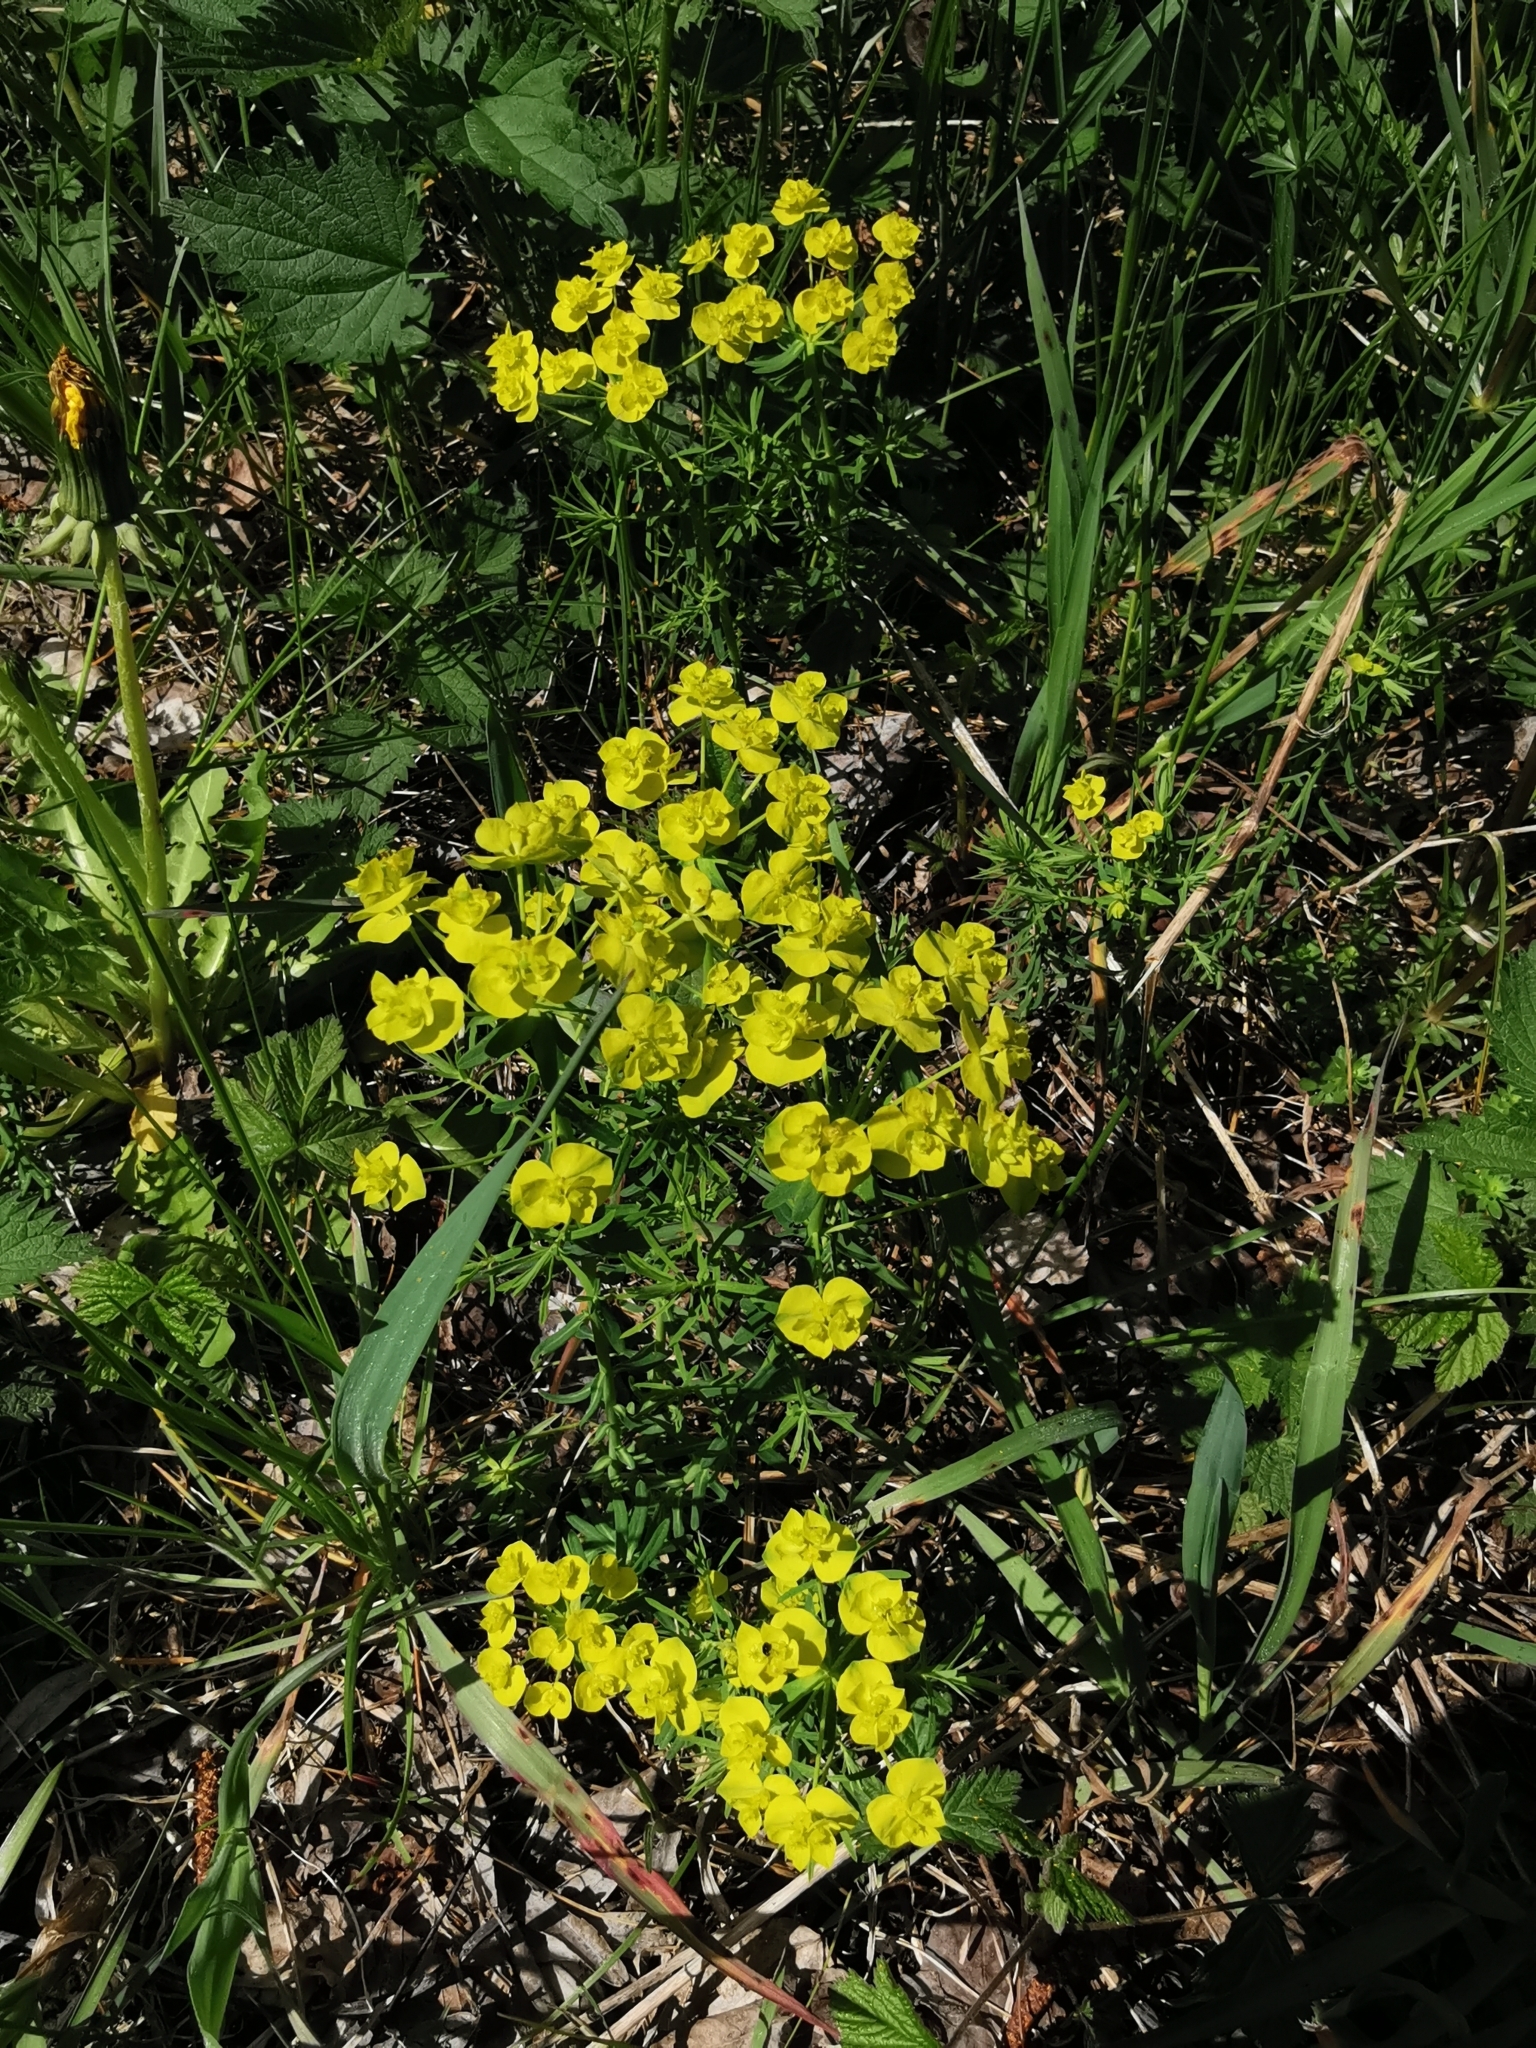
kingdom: Plantae
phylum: Tracheophyta
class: Magnoliopsida
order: Malpighiales
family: Euphorbiaceae
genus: Euphorbia
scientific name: Euphorbia cyparissias
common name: Cypress spurge
